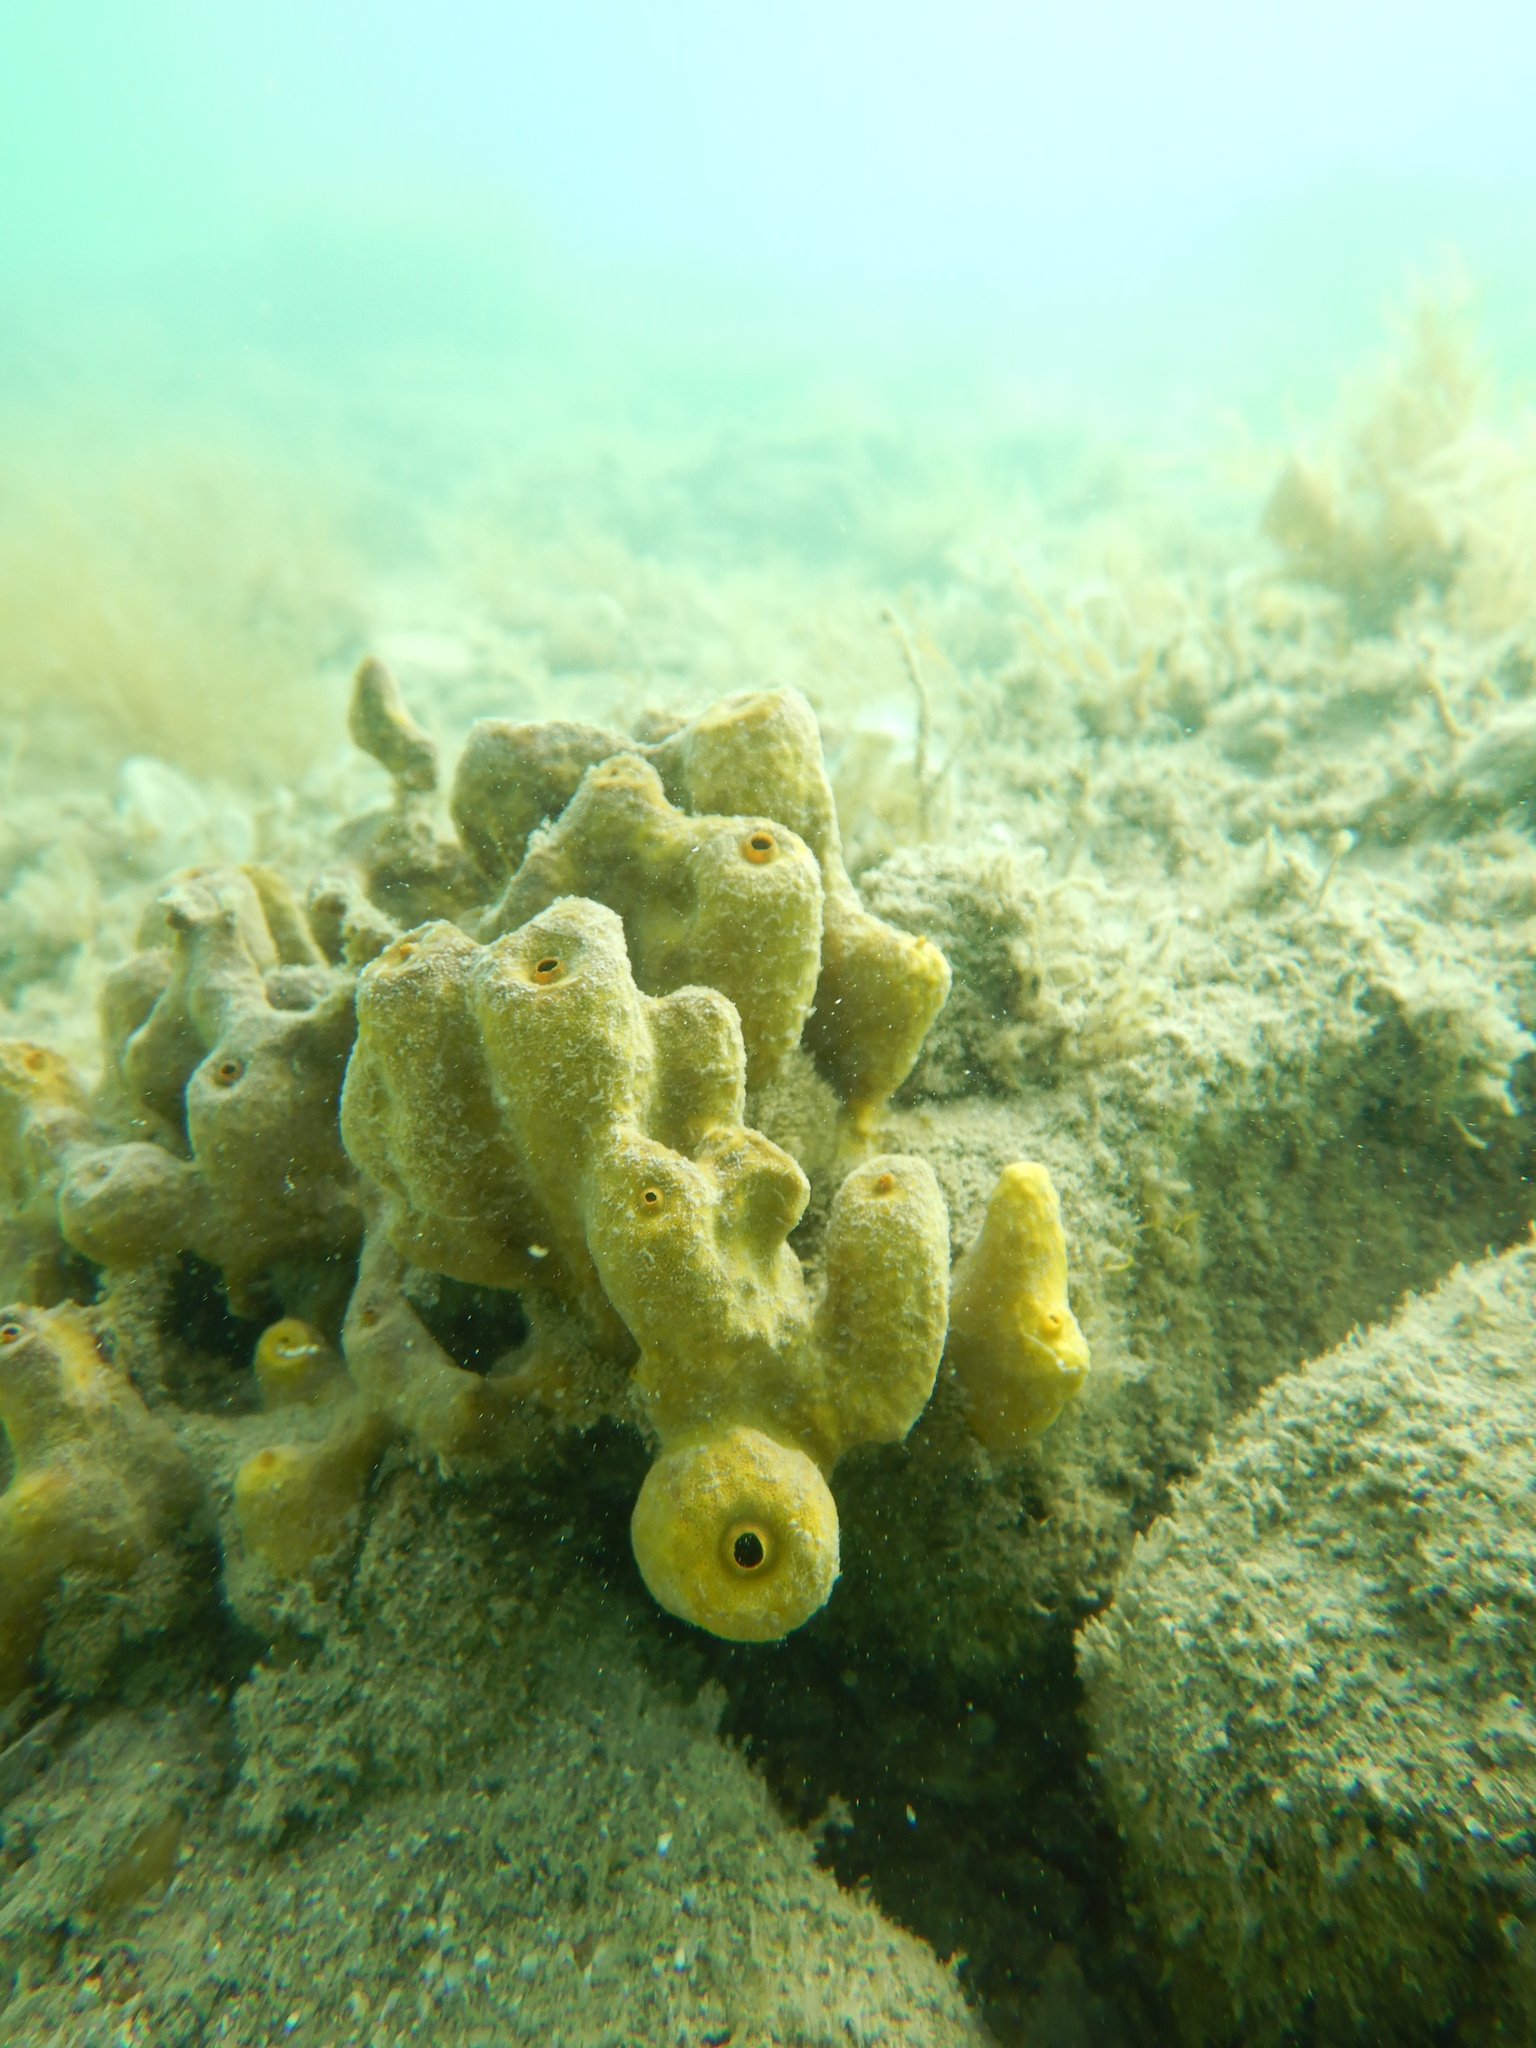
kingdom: Animalia
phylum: Porifera
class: Demospongiae
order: Verongiida
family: Aplysinidae
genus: Aplysina
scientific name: Aplysina aerophoba
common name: Aureate sponge
